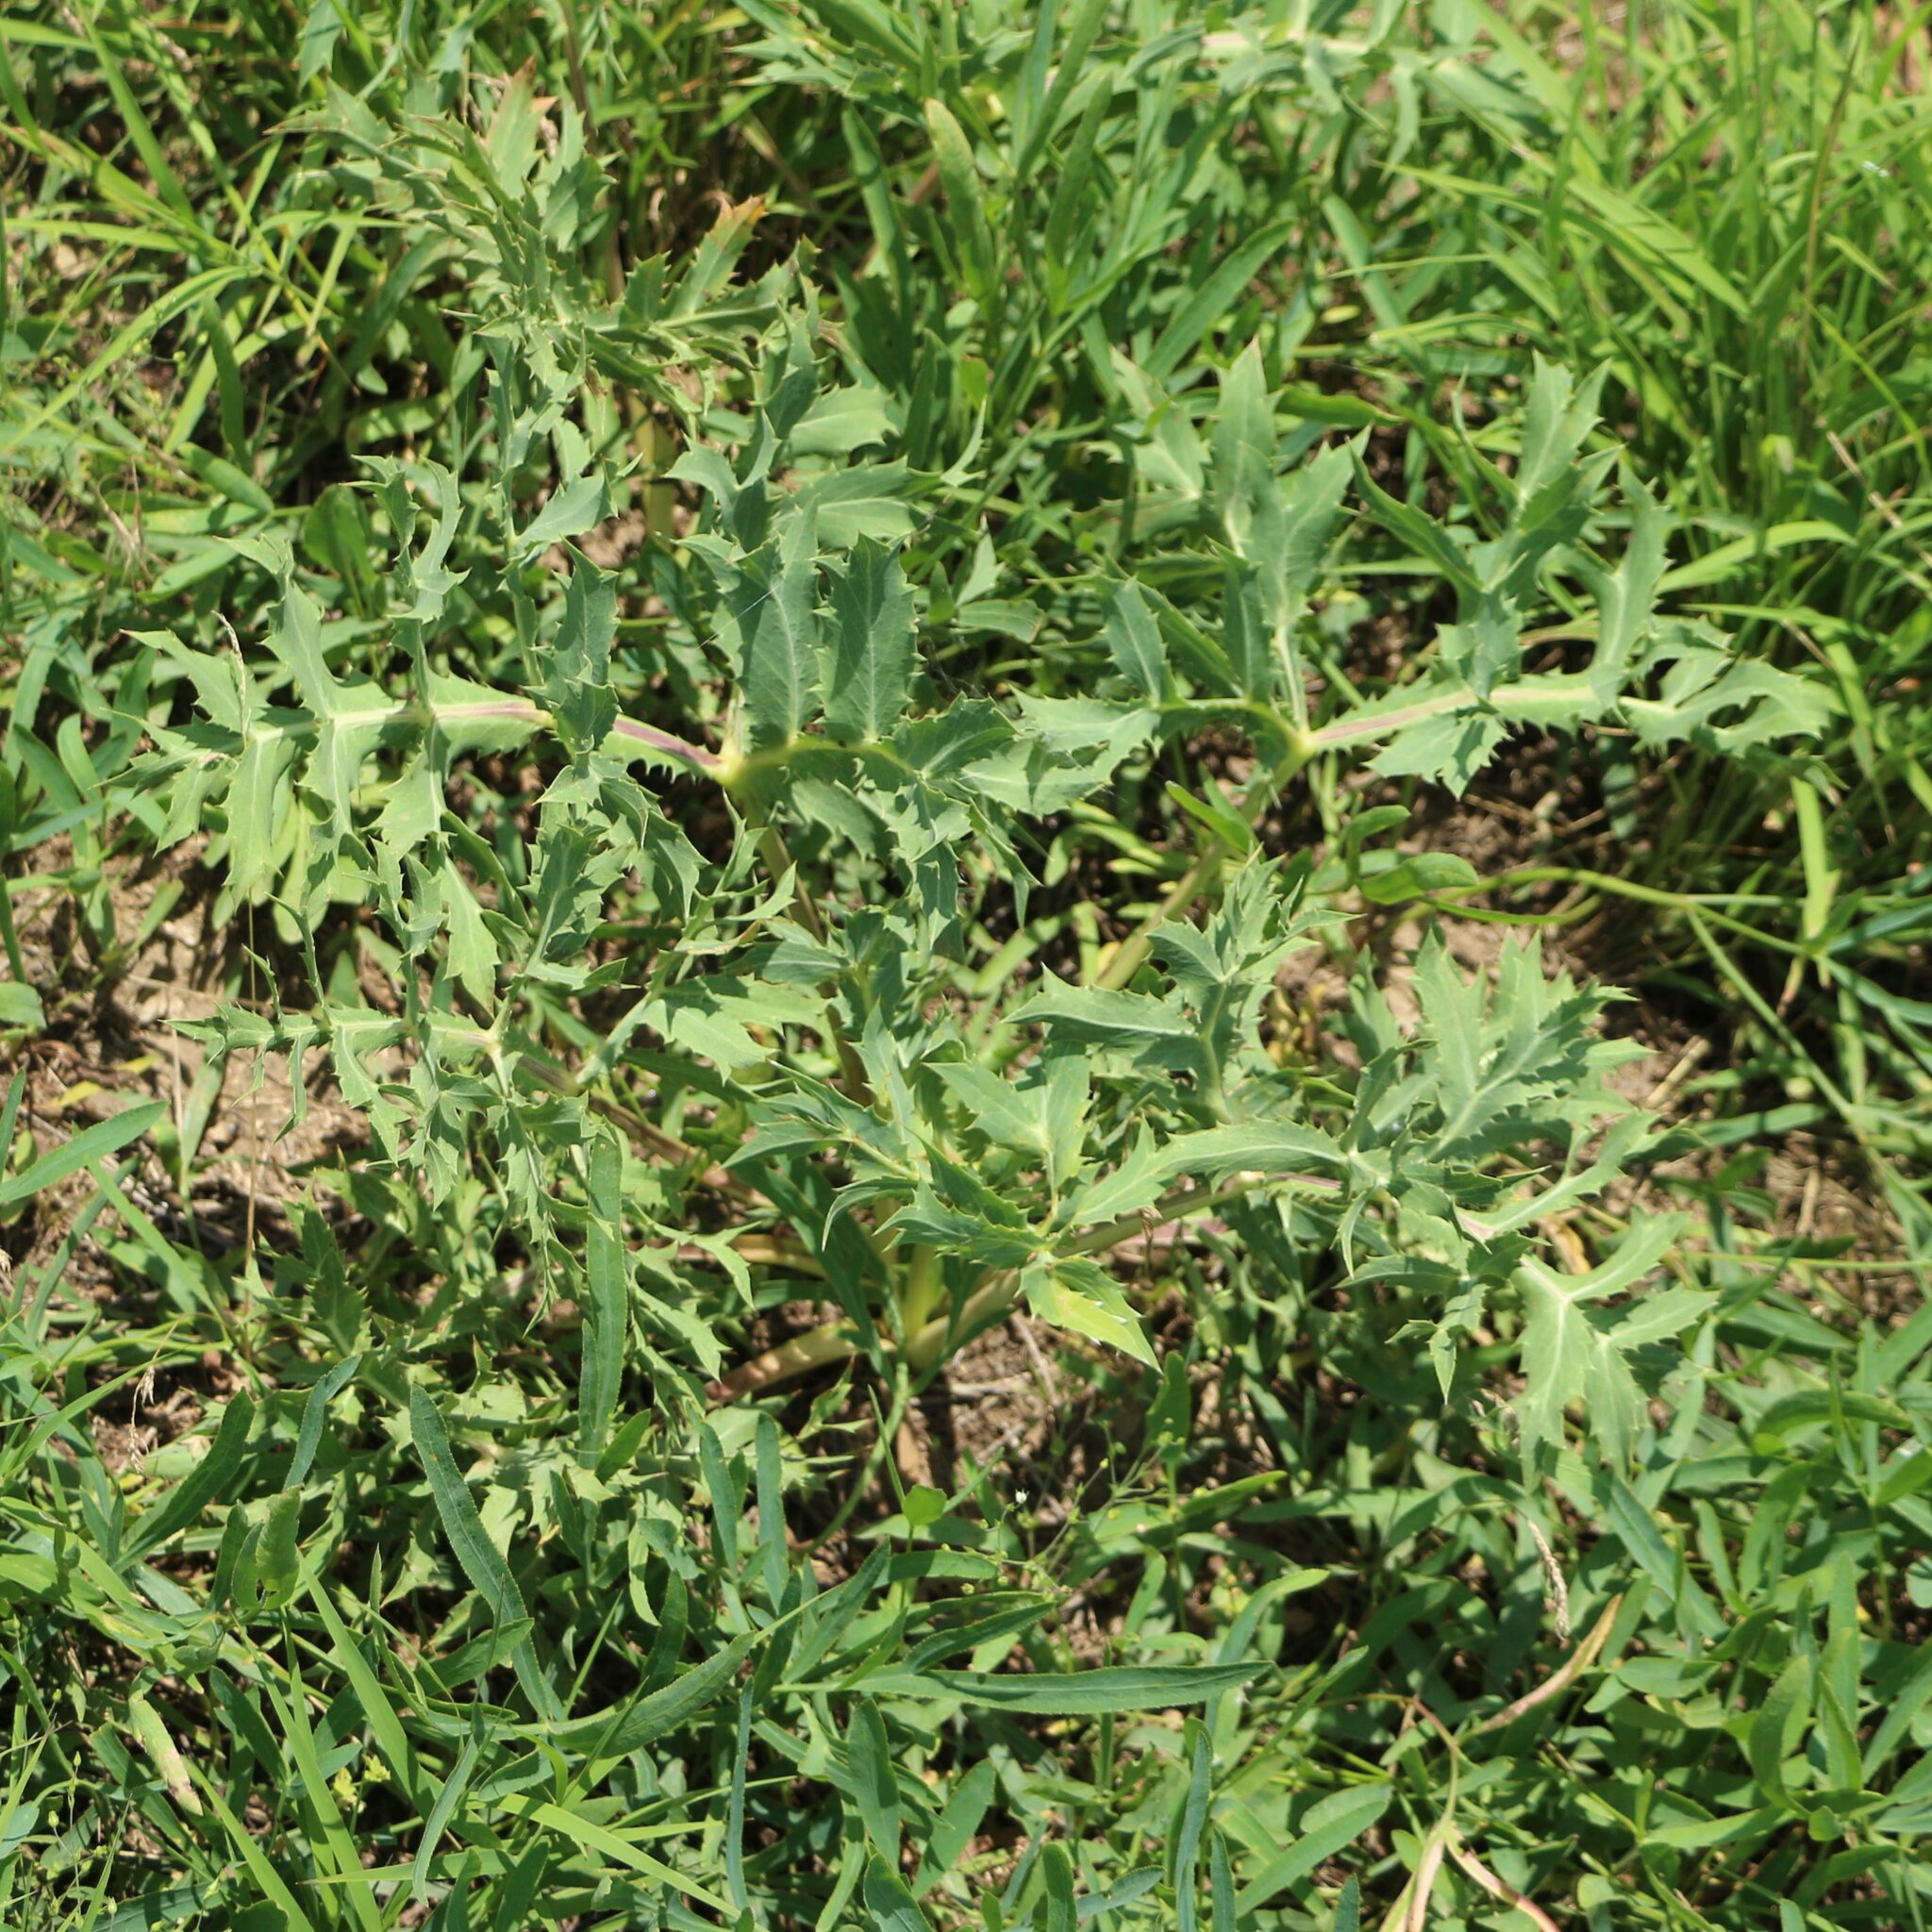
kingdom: Plantae
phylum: Tracheophyta
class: Magnoliopsida
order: Apiales
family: Apiaceae
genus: Eryngium
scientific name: Eryngium campestre
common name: Field eryngo
